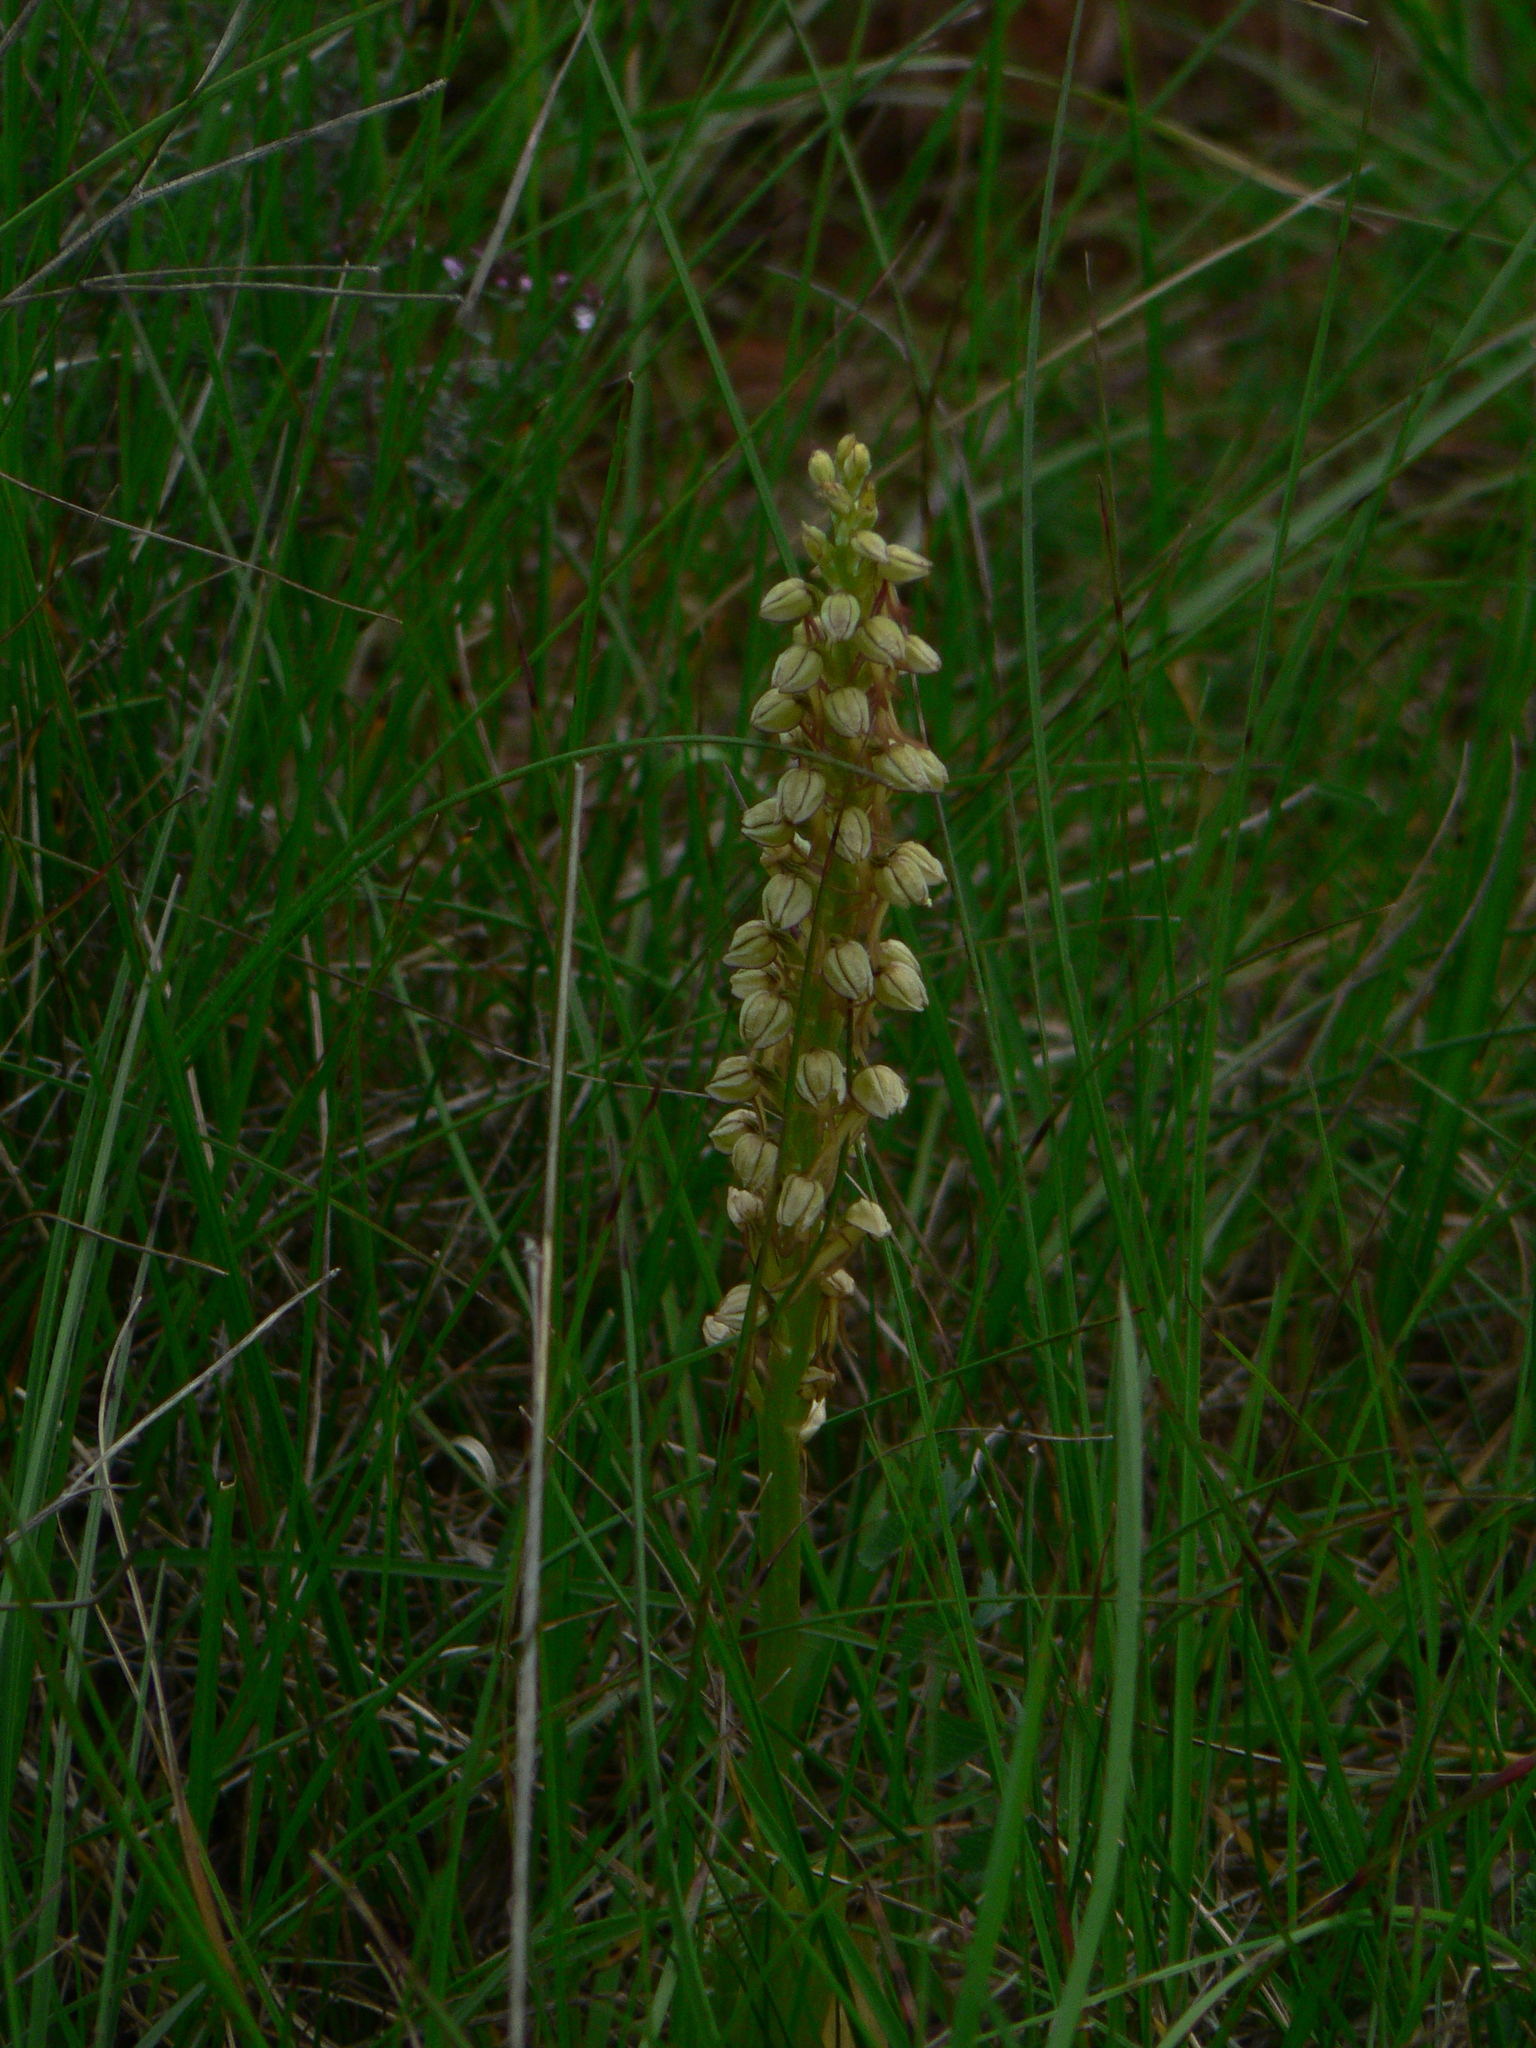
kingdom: Plantae
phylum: Tracheophyta
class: Liliopsida
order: Asparagales
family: Orchidaceae
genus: Orchis
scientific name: Orchis anthropophora
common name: Man orchid
